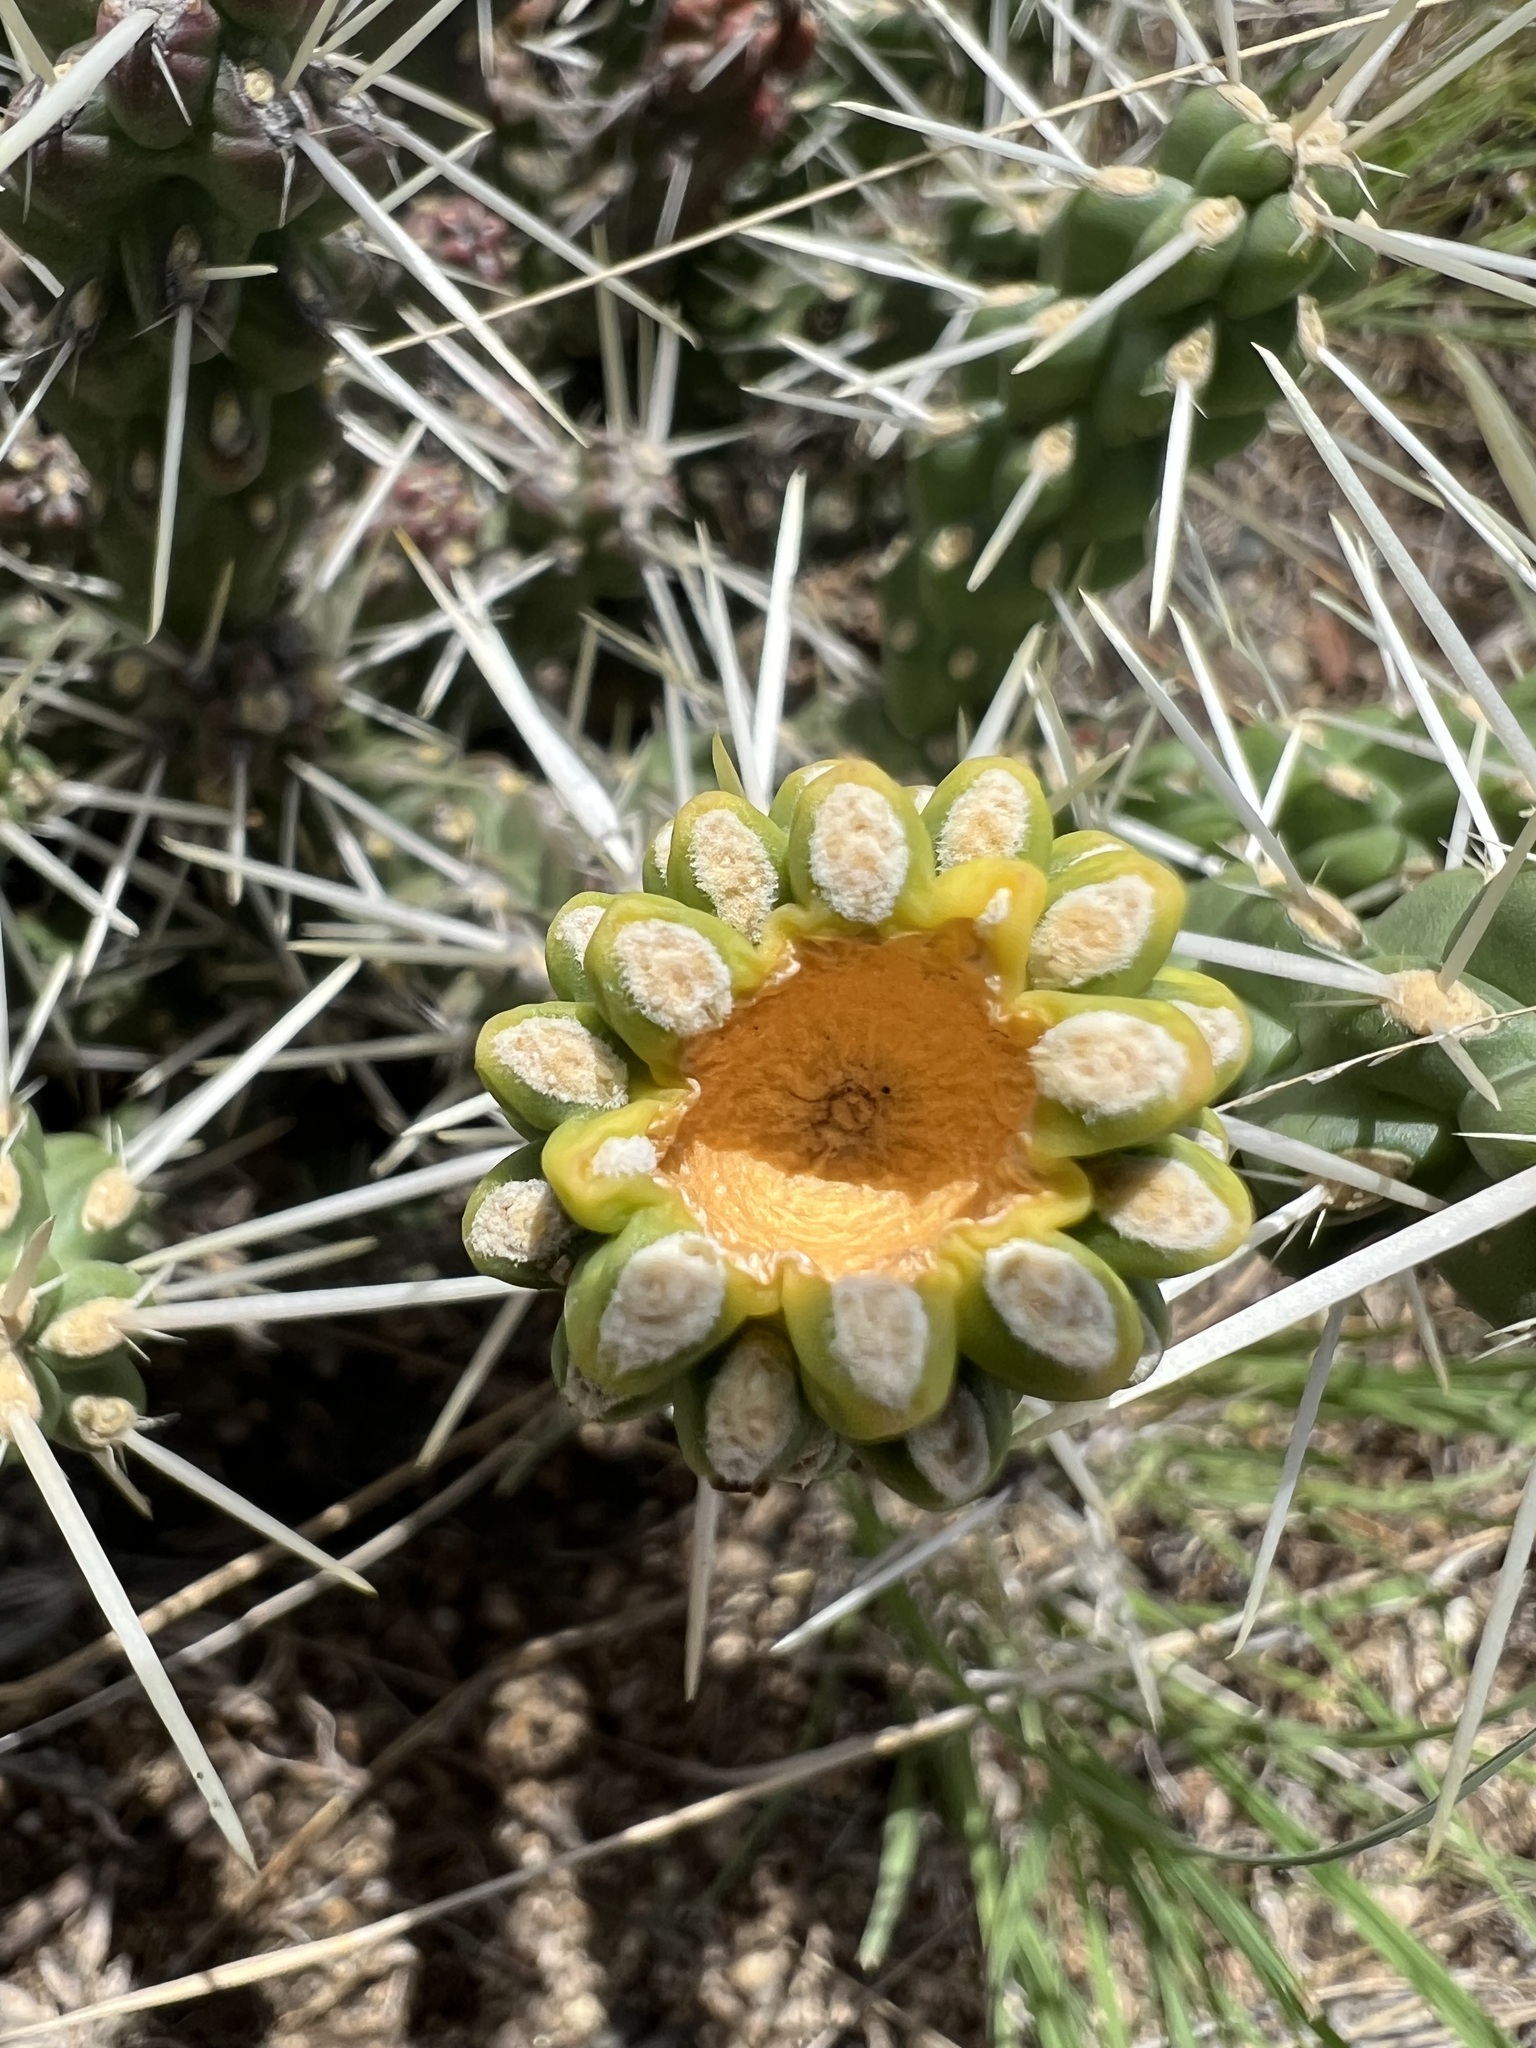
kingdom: Plantae
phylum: Tracheophyta
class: Magnoliopsida
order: Caryophyllales
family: Cactaceae
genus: Cylindropuntia
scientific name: Cylindropuntia whipplei
